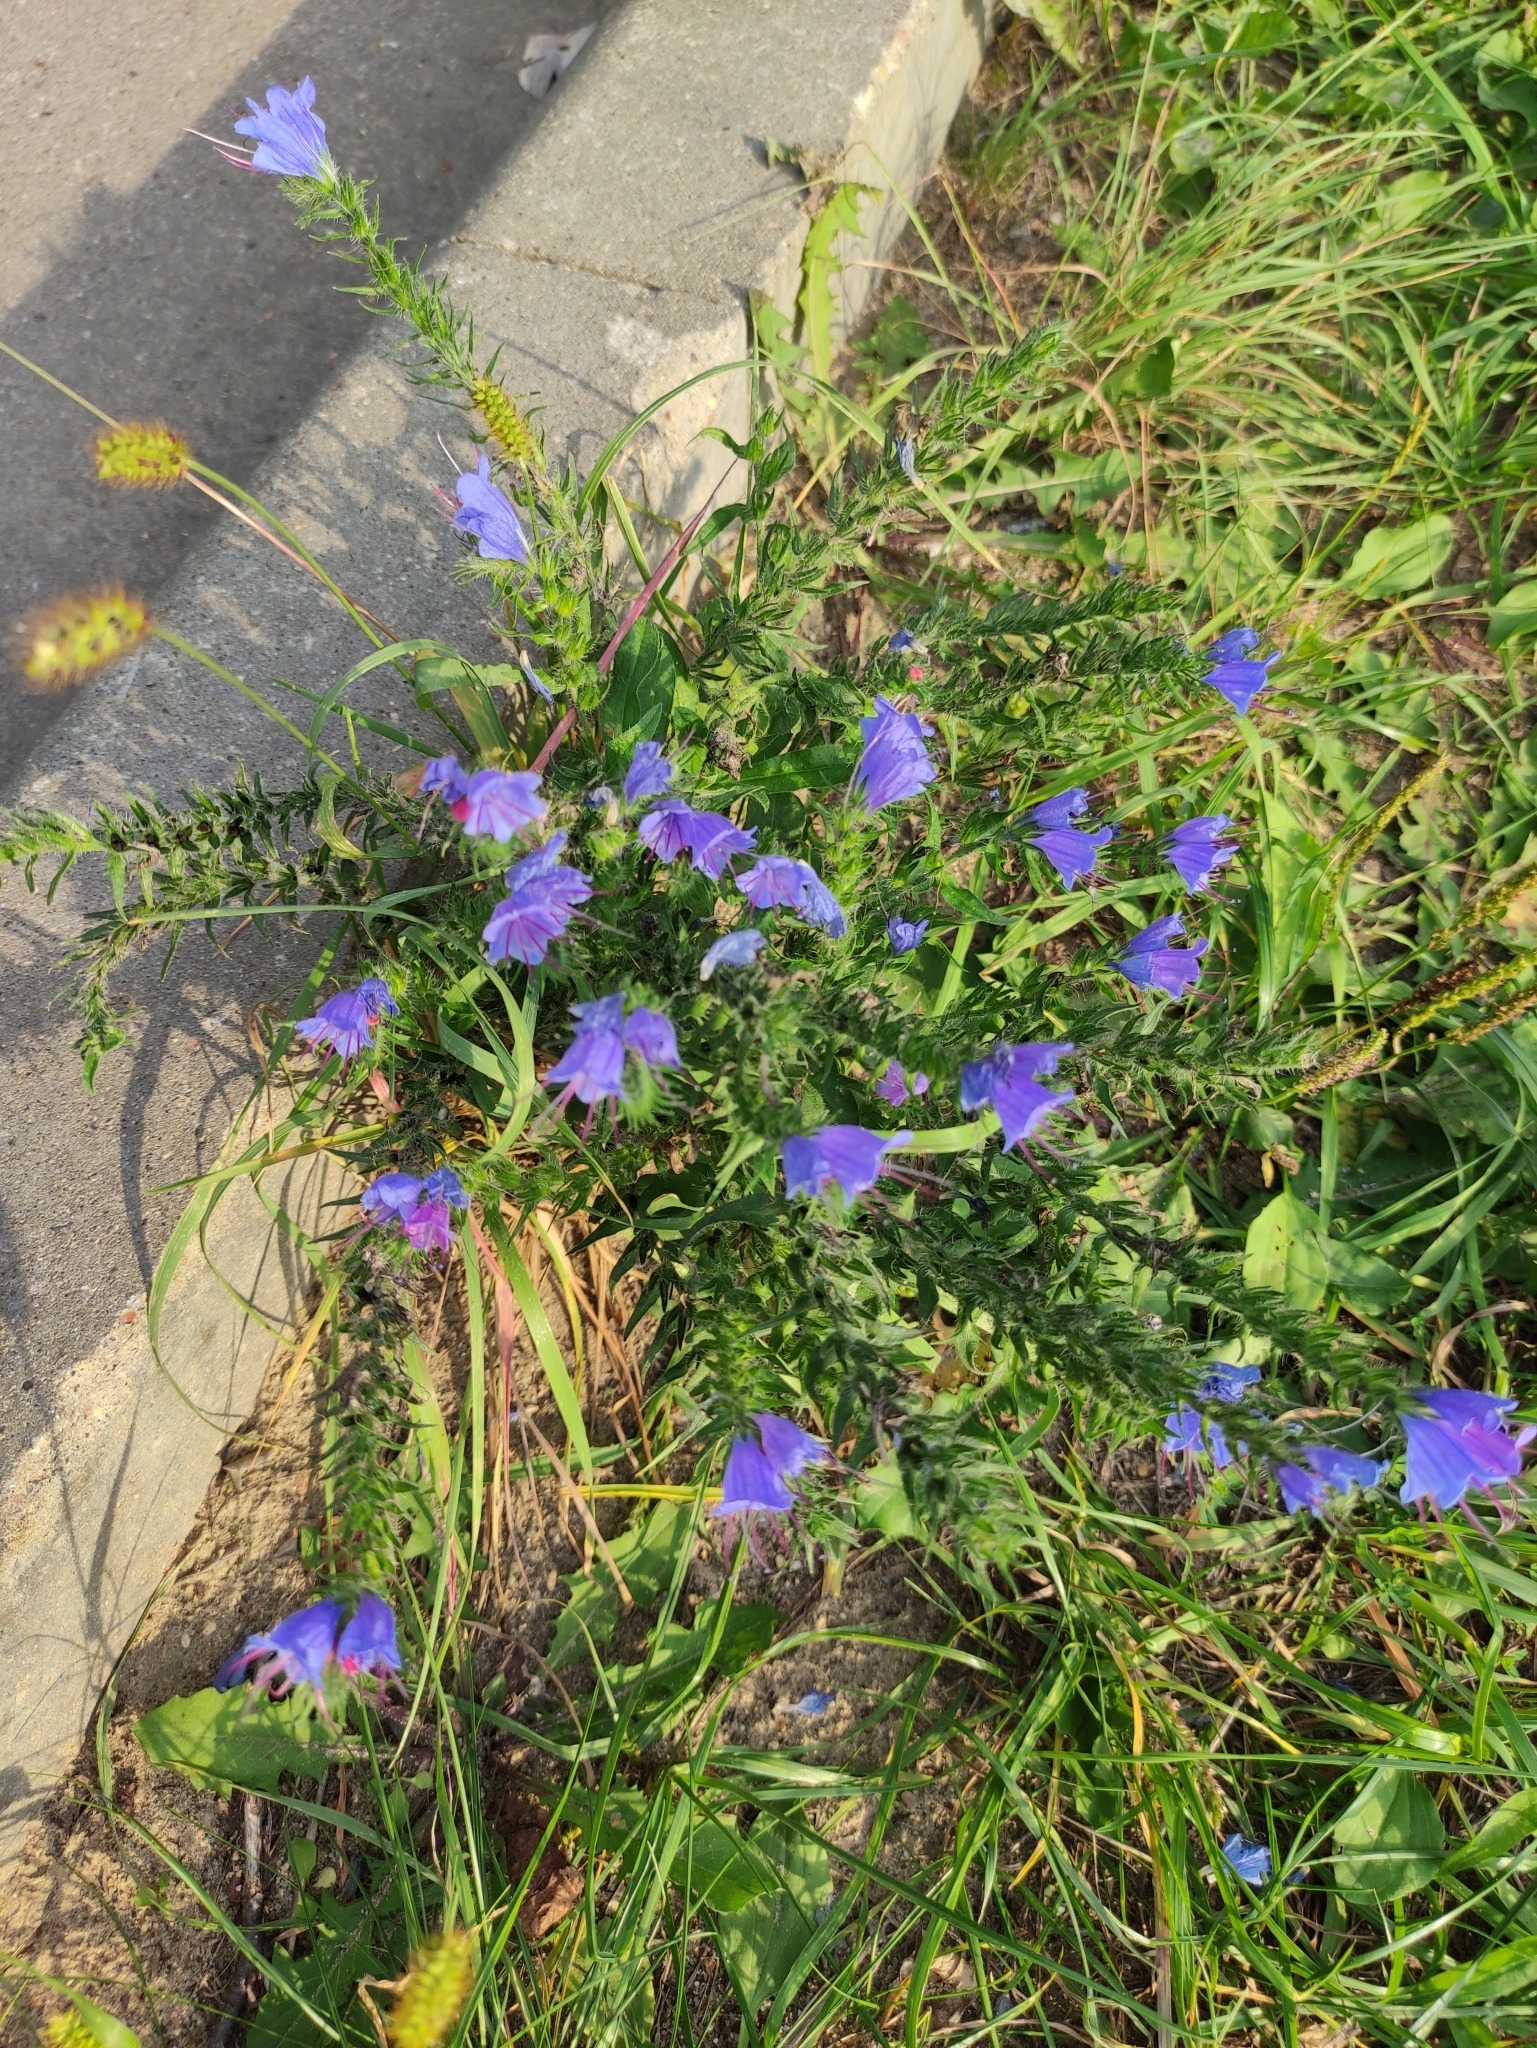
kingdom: Plantae
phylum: Tracheophyta
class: Magnoliopsida
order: Boraginales
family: Boraginaceae
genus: Echium
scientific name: Echium vulgare
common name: Common viper's bugloss
